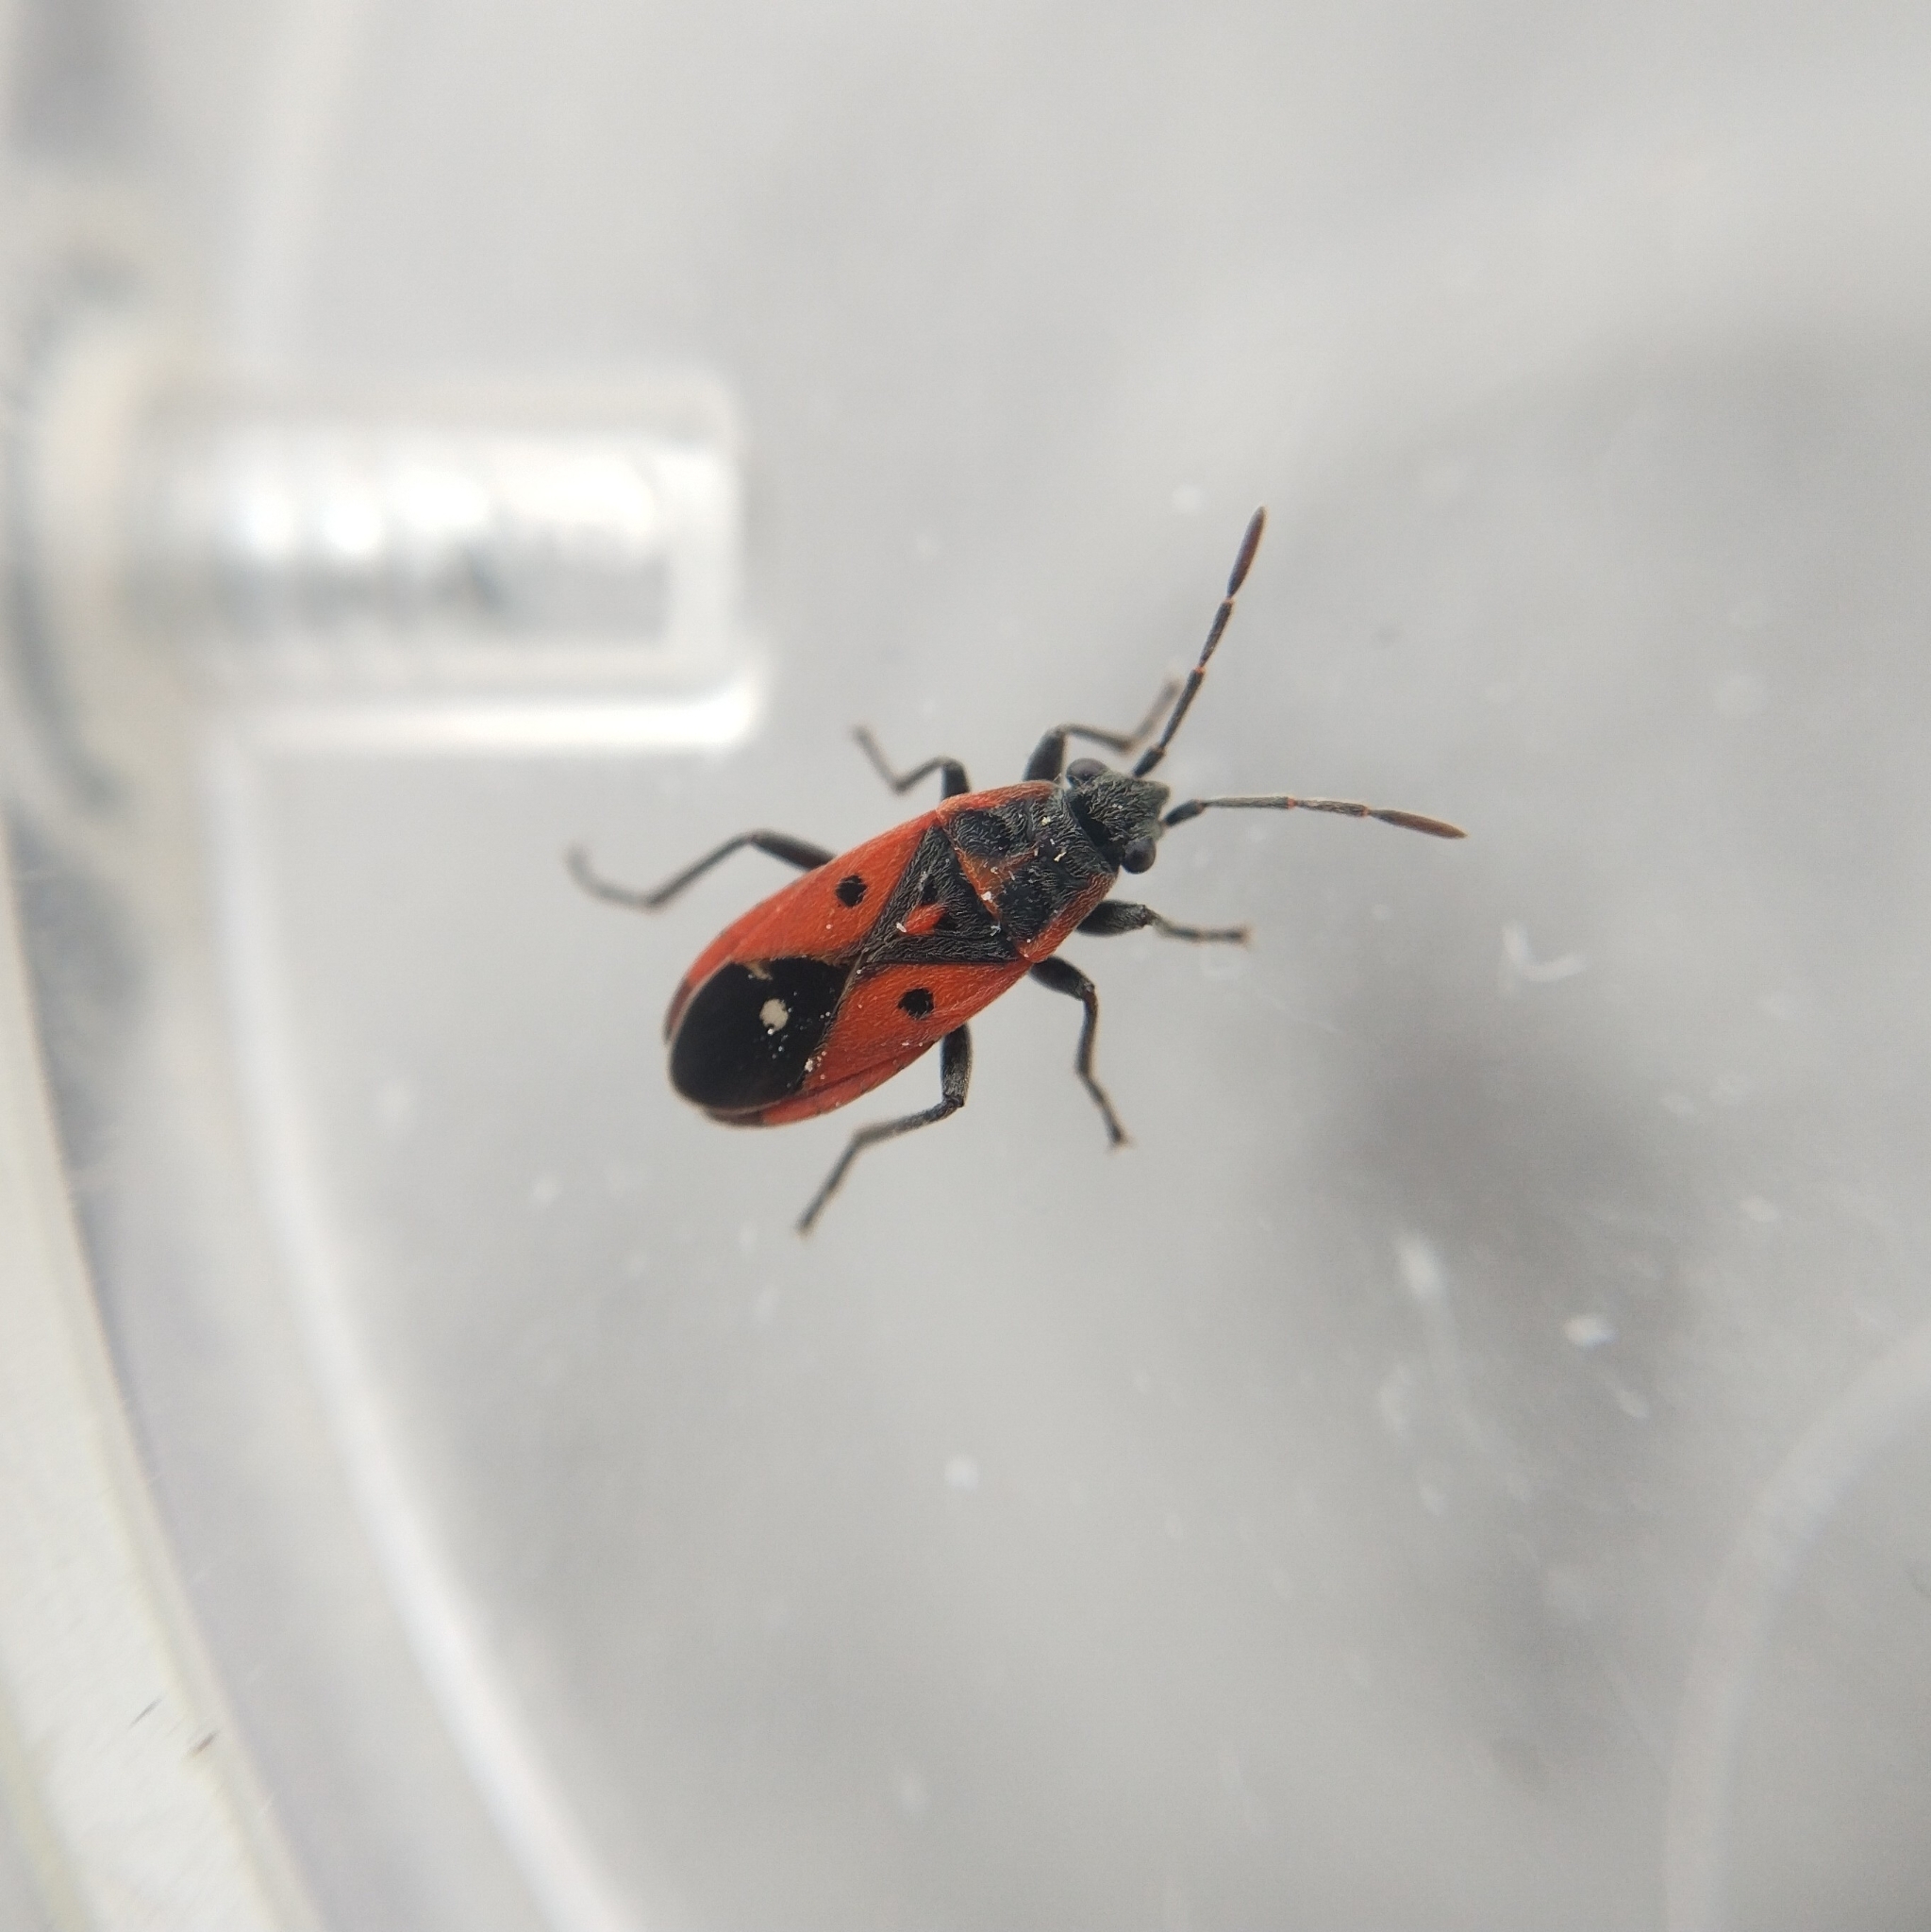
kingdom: Animalia
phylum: Arthropoda
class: Insecta
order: Hemiptera
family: Lygaeidae
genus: Melanocoryphus
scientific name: Melanocoryphus tristrami
